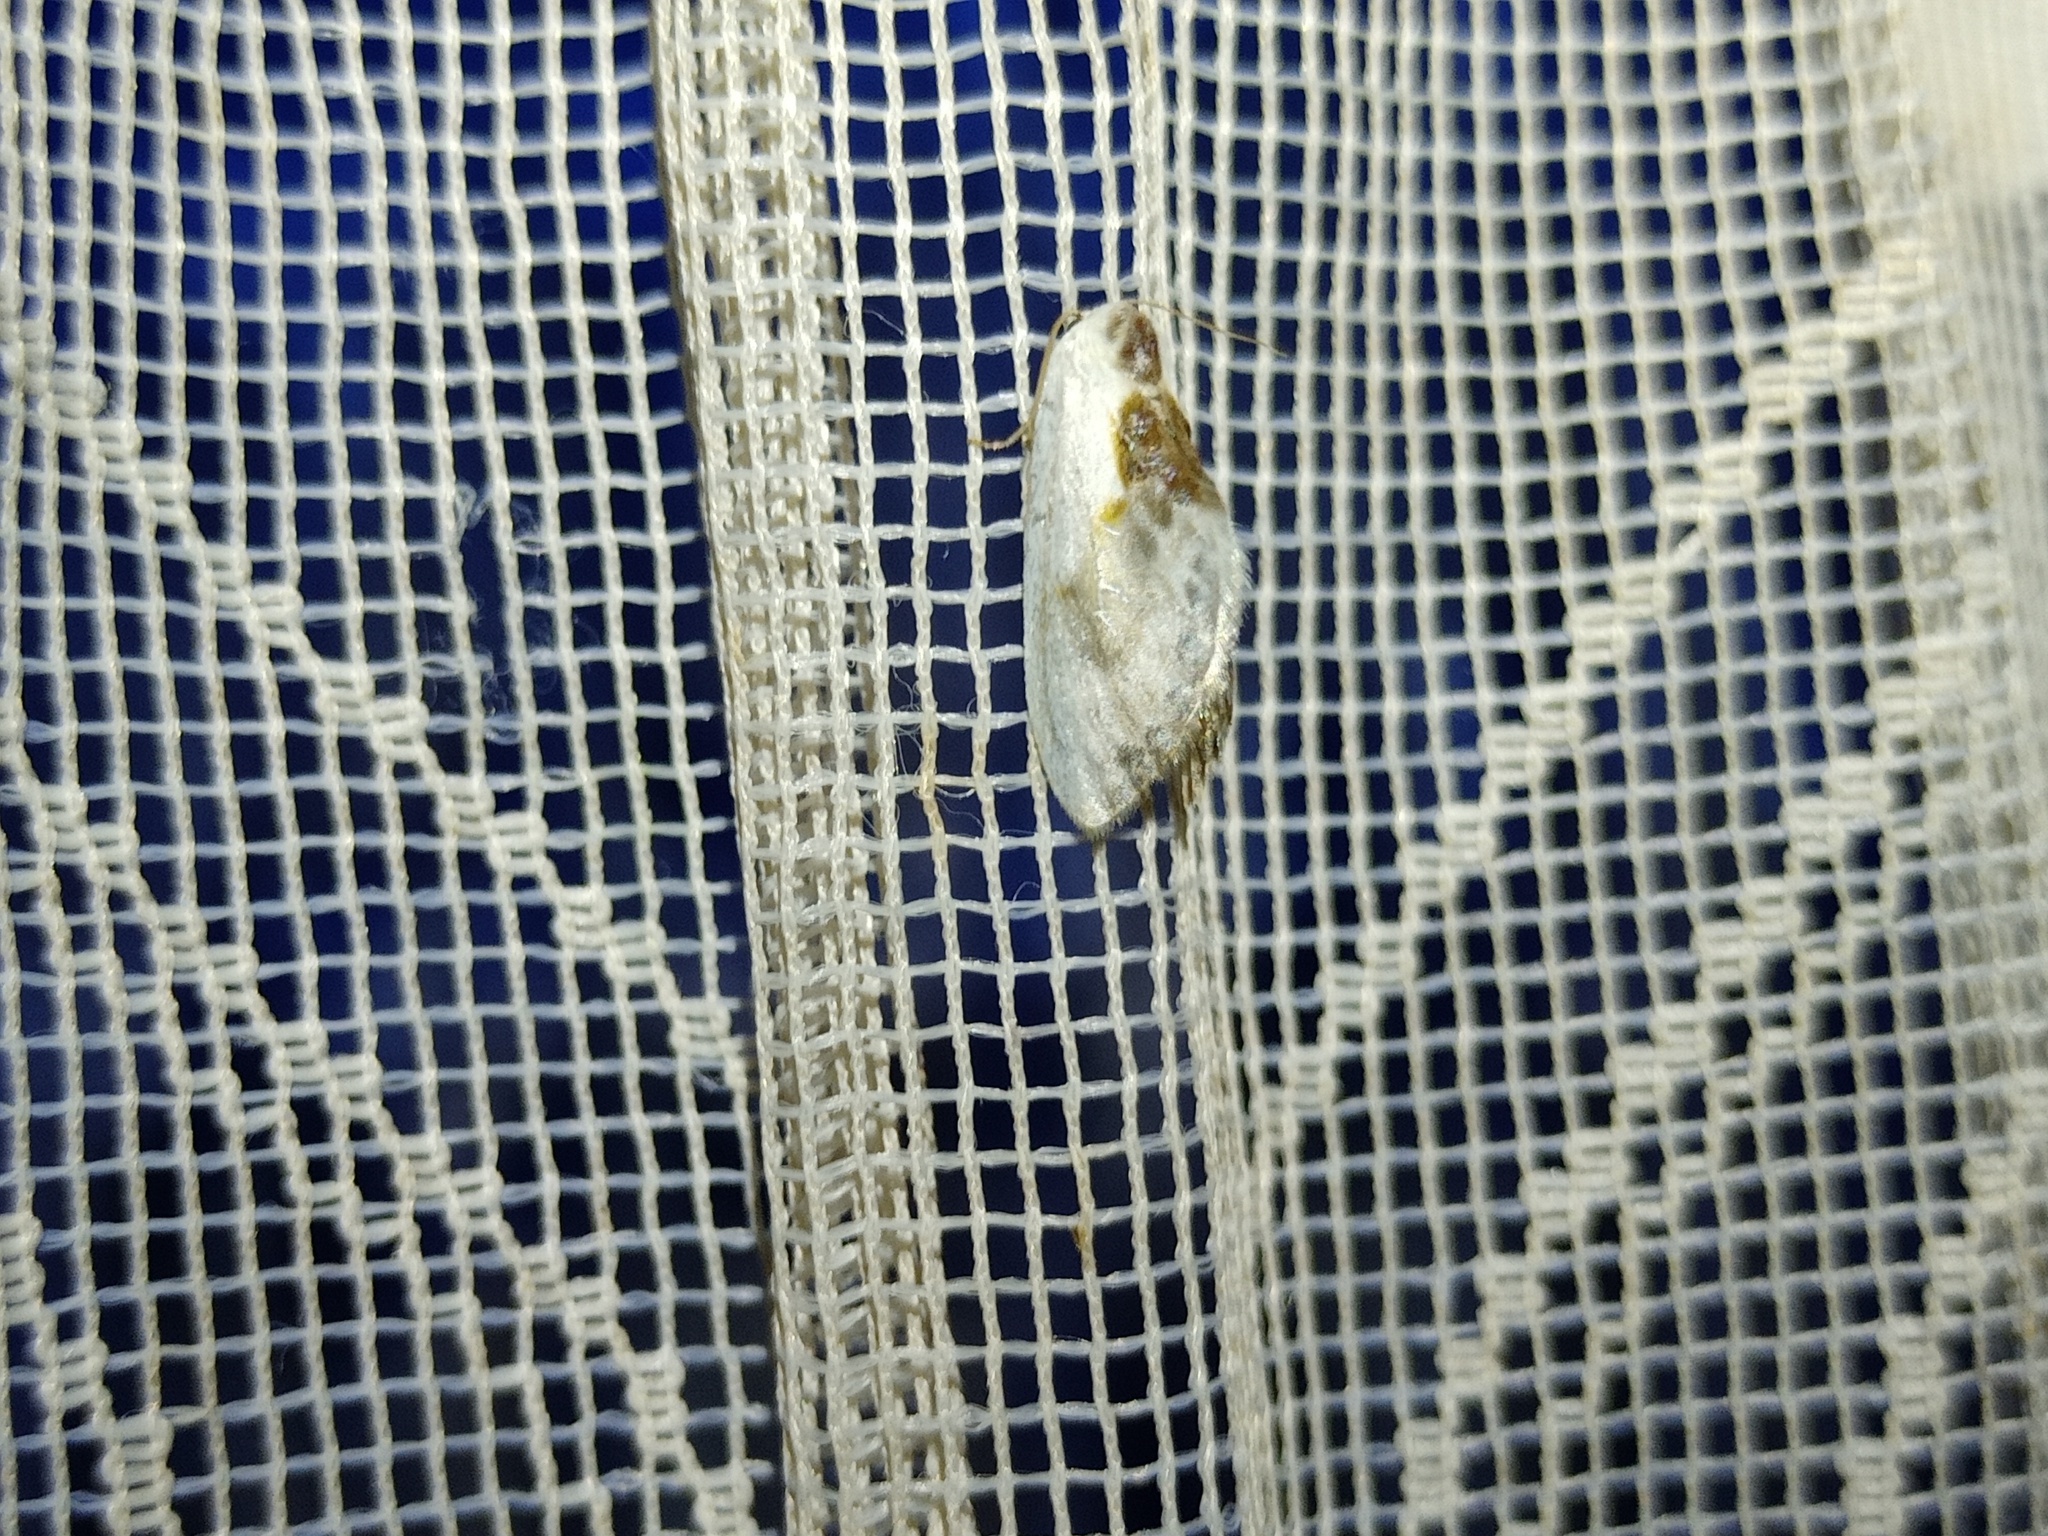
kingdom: Animalia
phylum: Arthropoda
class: Insecta
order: Lepidoptera
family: Drepanidae
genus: Cilix
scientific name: Cilix glaucata
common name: Chinese character
